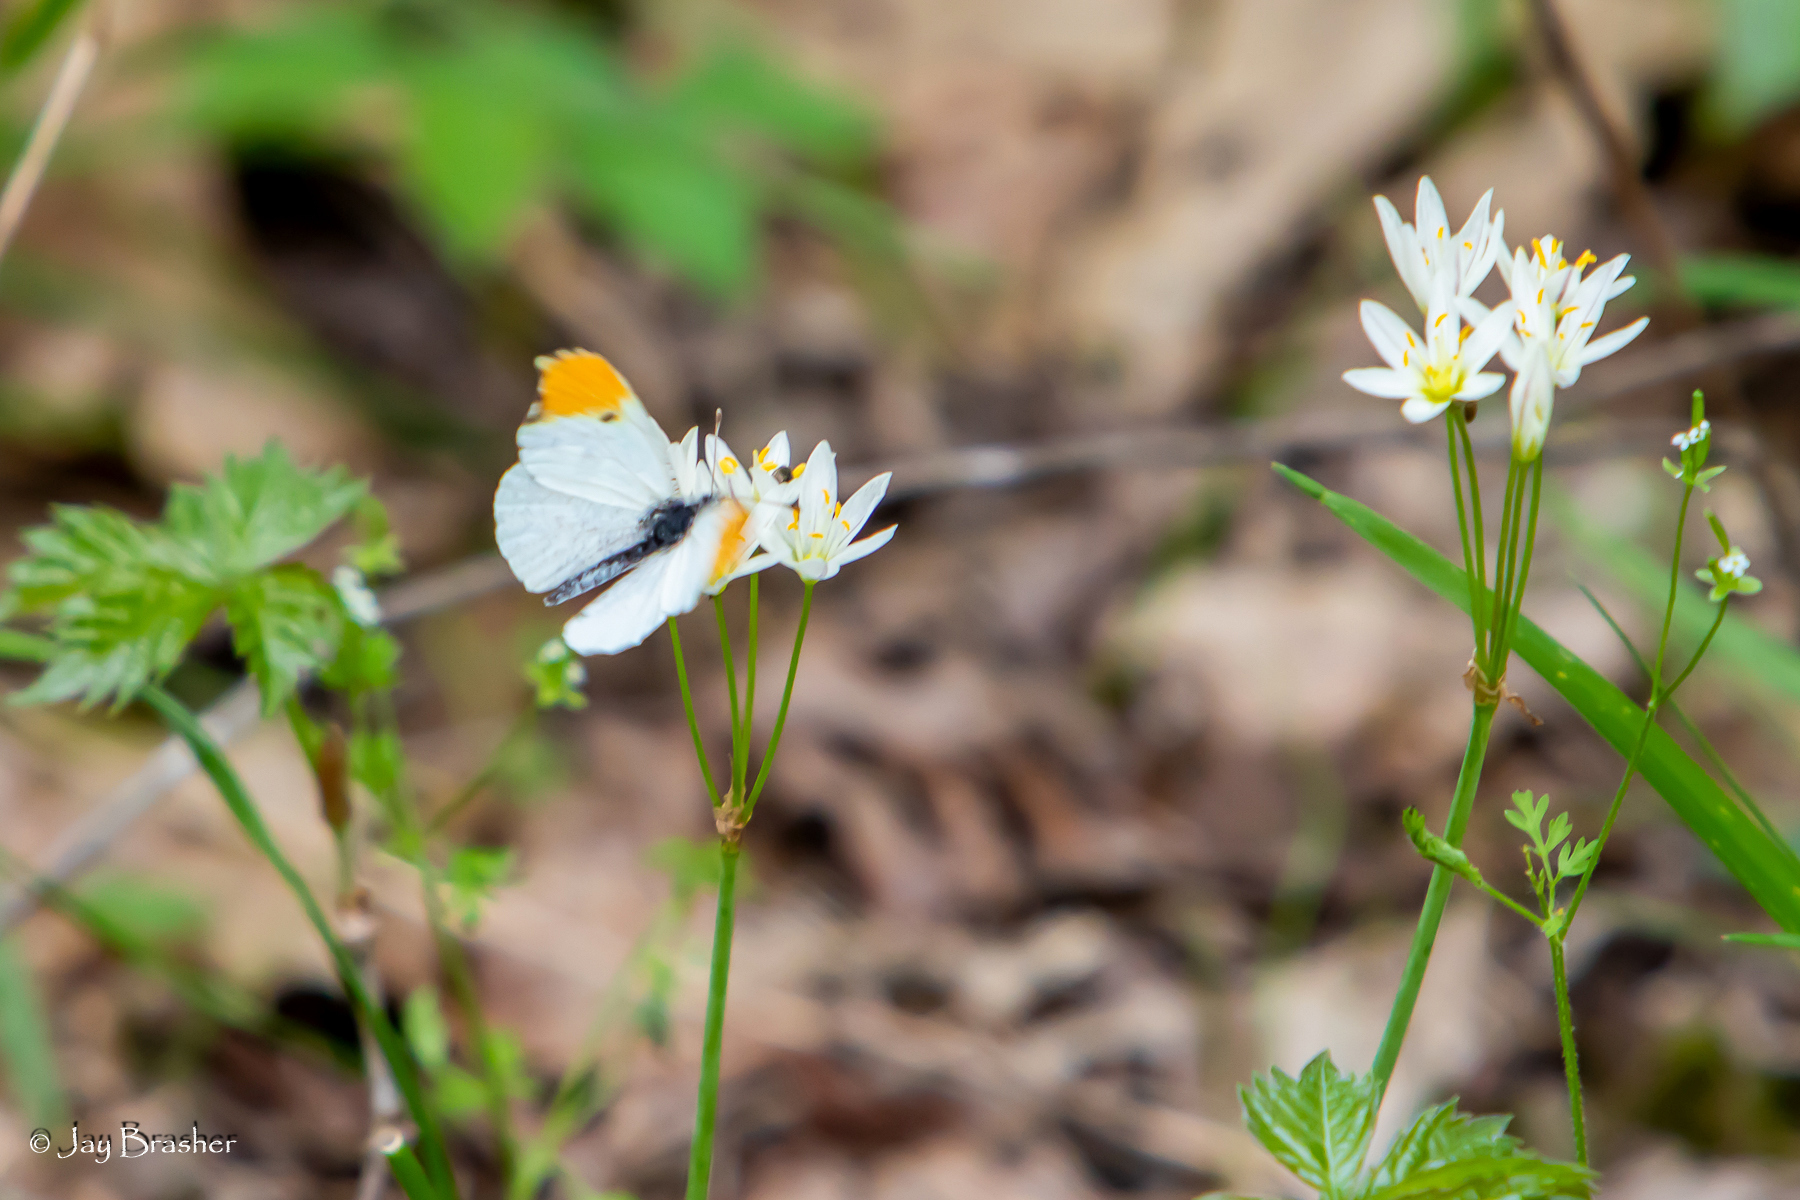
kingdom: Plantae
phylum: Tracheophyta
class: Liliopsida
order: Asparagales
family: Amaryllidaceae
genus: Nothoscordum
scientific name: Nothoscordum bivalve
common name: Crow-poison
